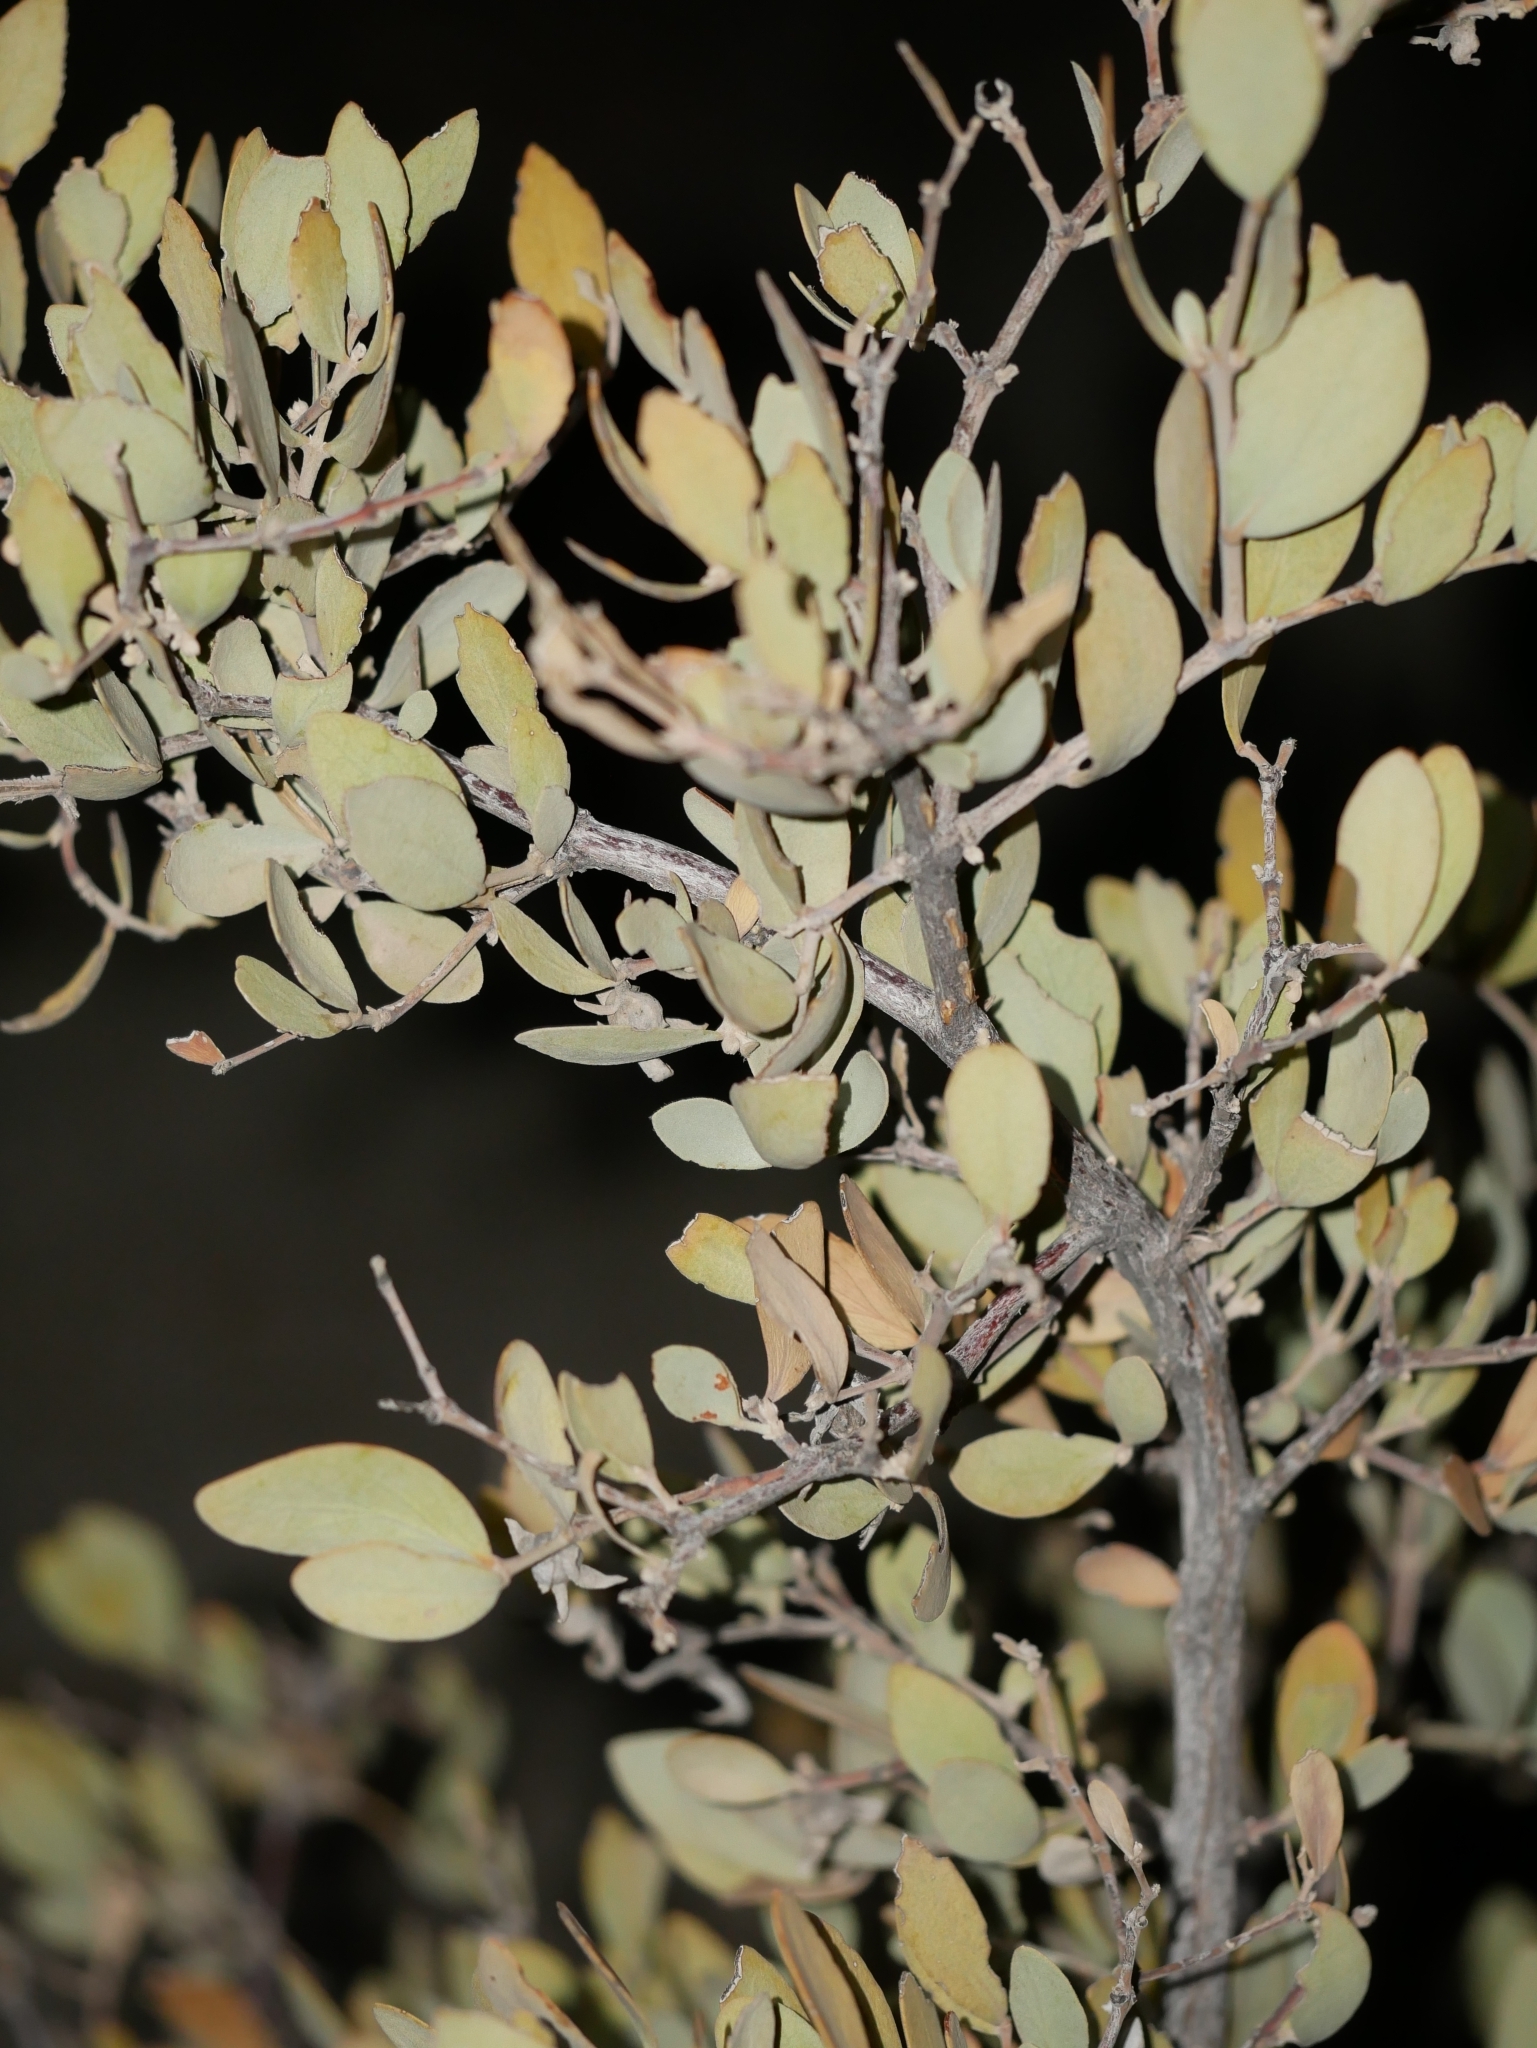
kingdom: Plantae
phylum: Tracheophyta
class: Magnoliopsida
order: Caryophyllales
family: Simmondsiaceae
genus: Simmondsia
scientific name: Simmondsia chinensis
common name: Jojoba
